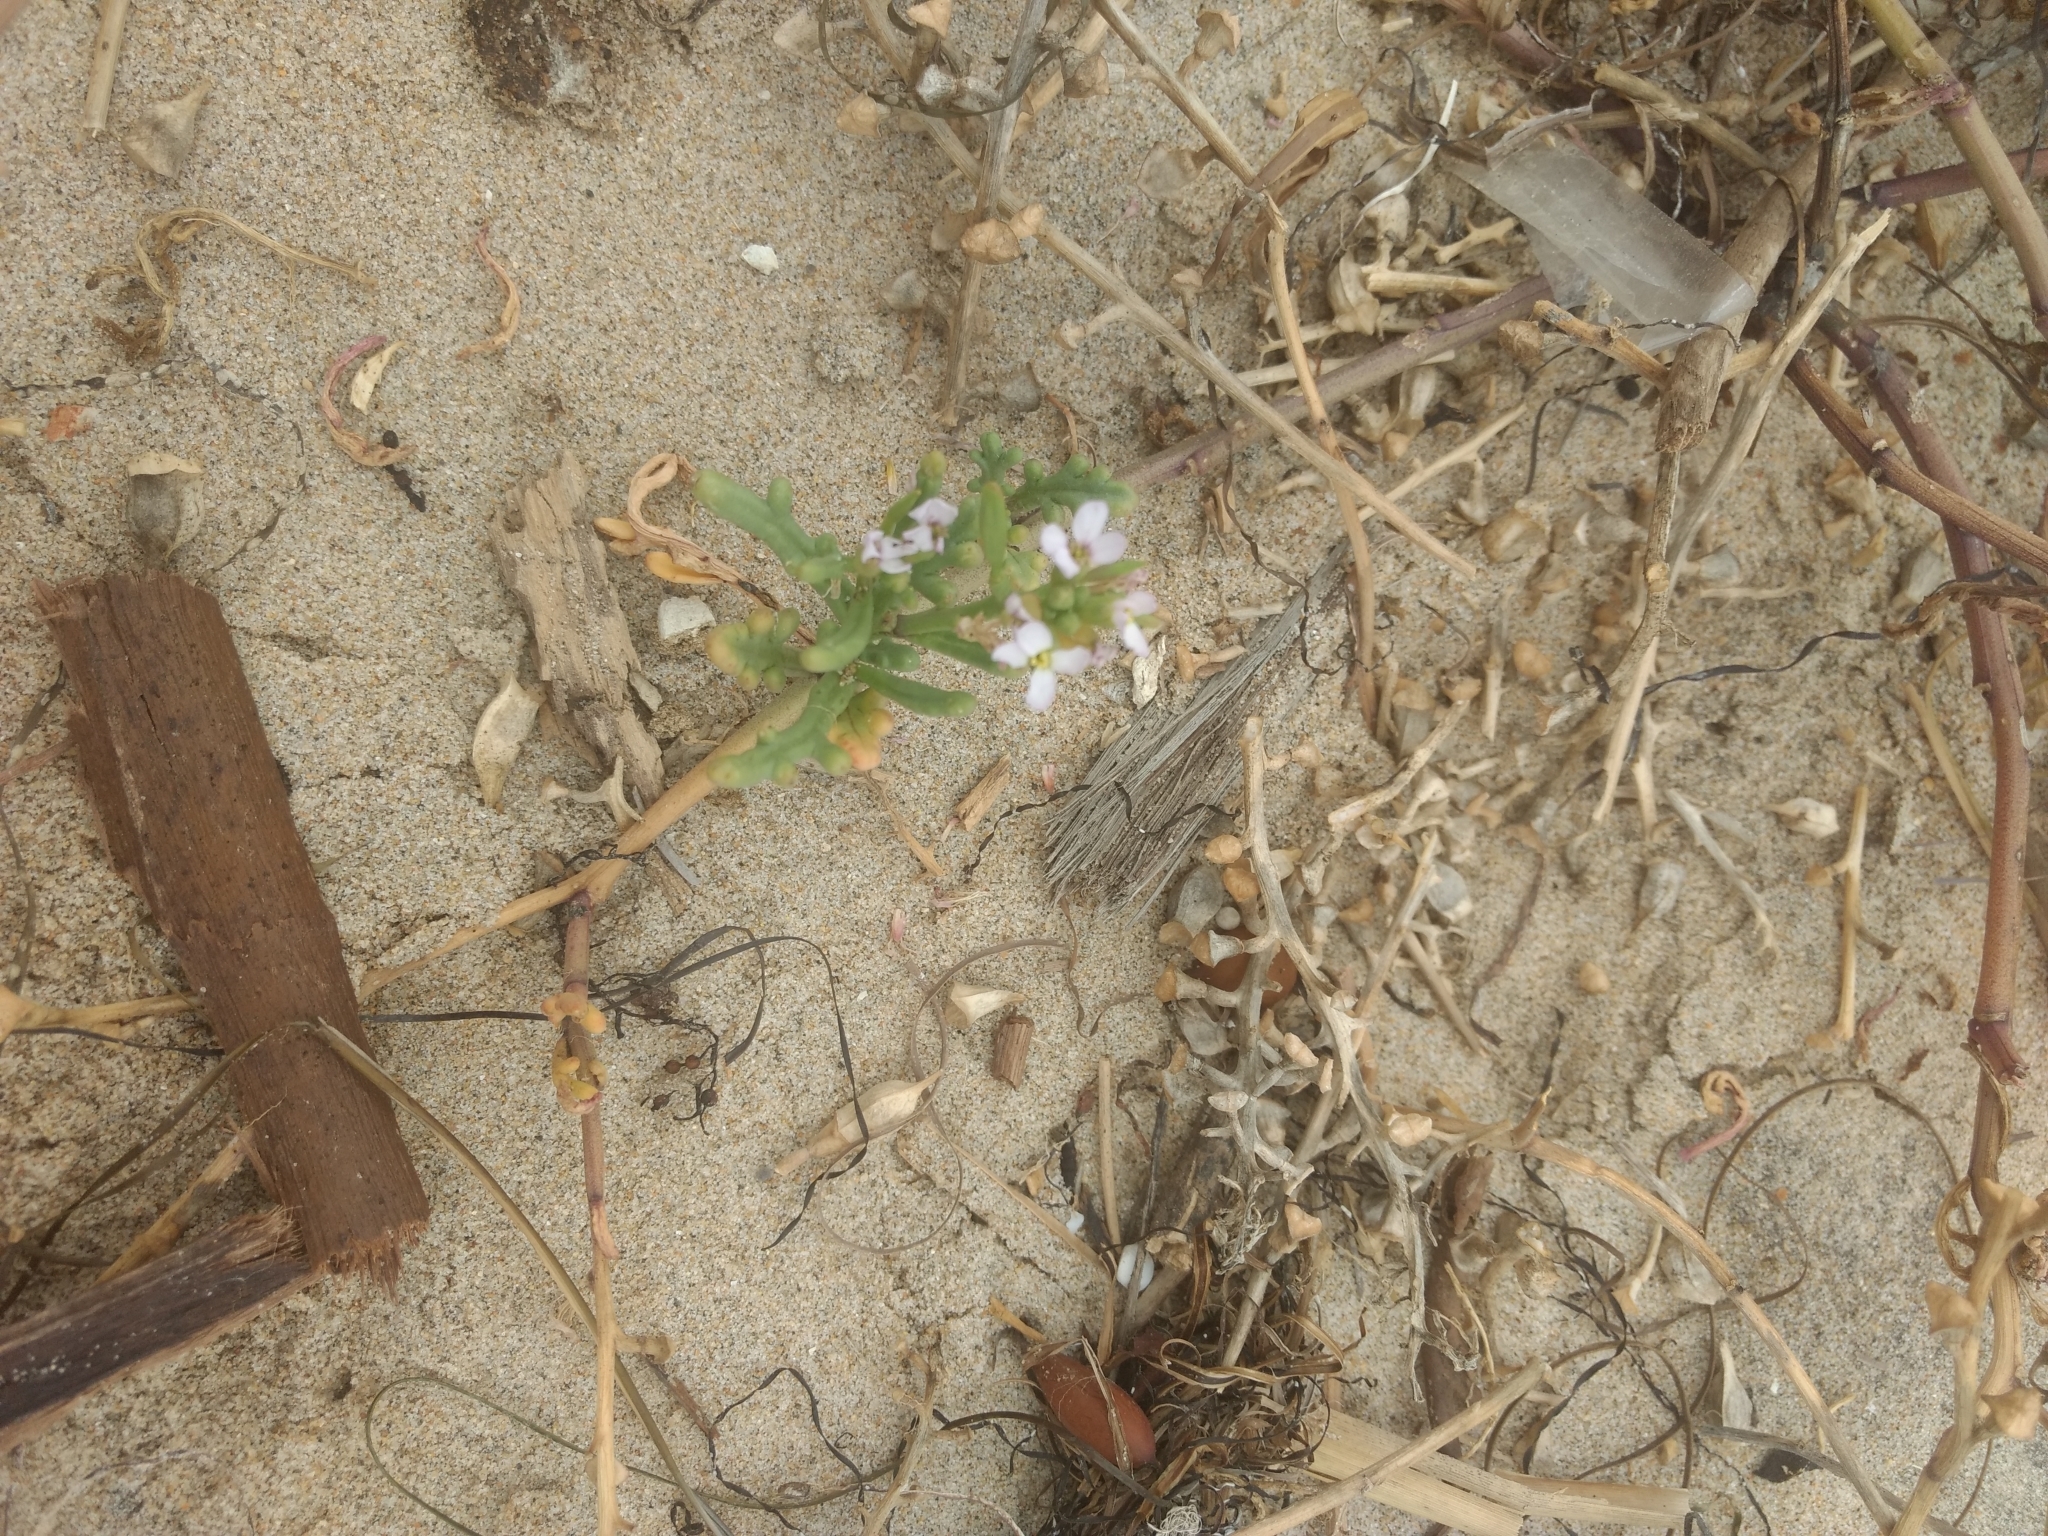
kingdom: Plantae
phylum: Tracheophyta
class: Magnoliopsida
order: Brassicales
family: Brassicaceae
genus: Cakile
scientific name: Cakile maritima
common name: Sea rocket
